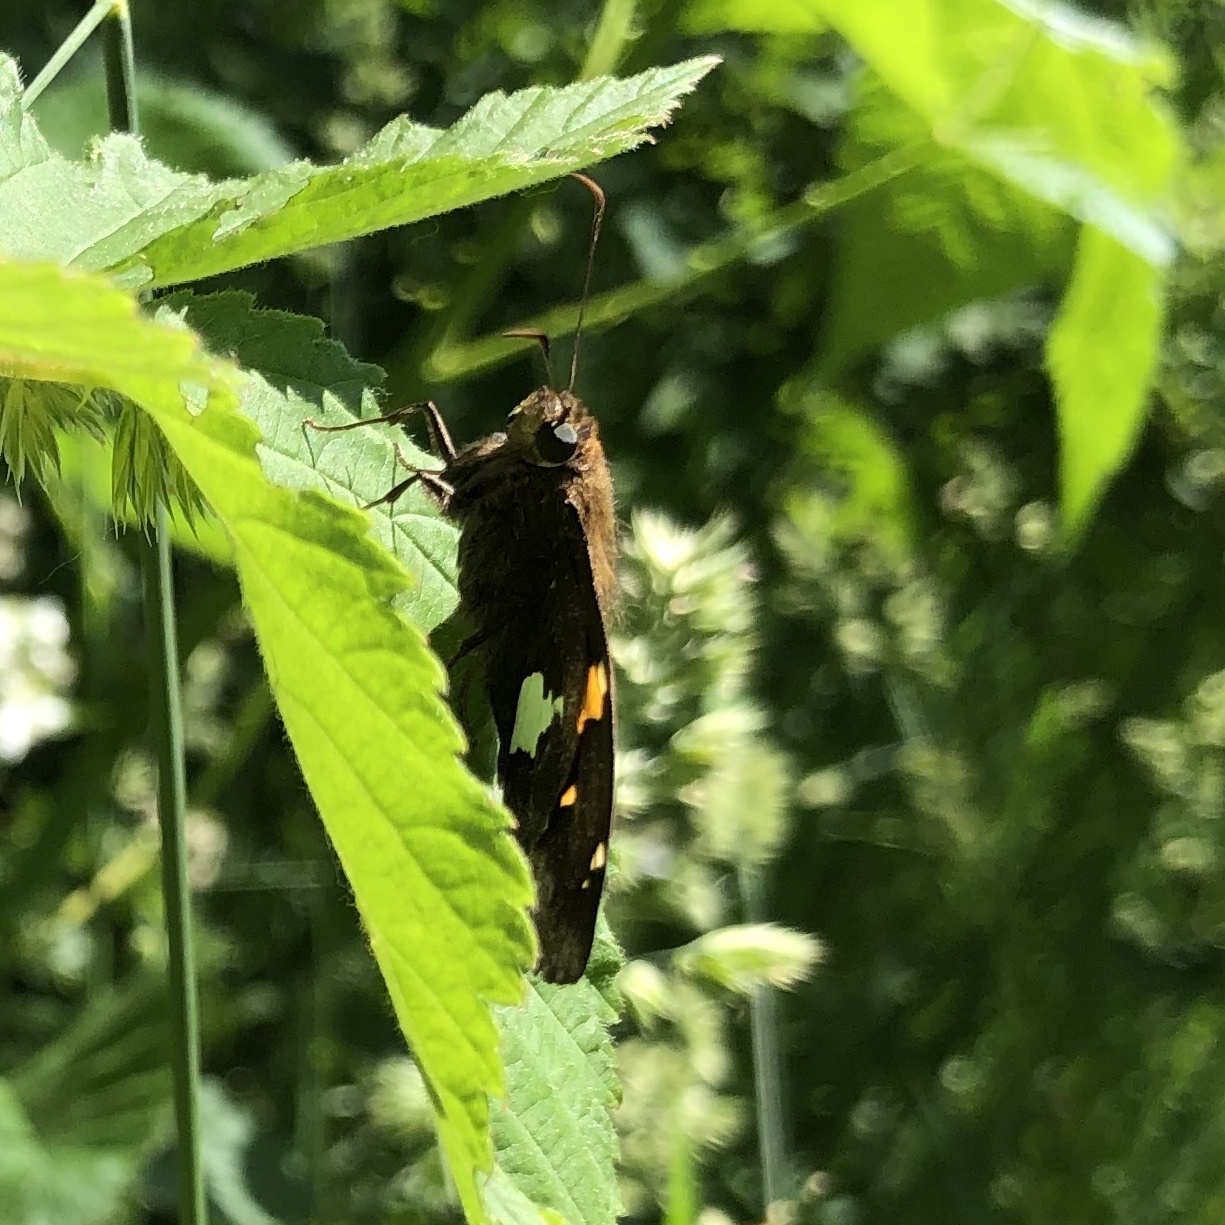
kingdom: Animalia
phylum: Arthropoda
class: Insecta
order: Lepidoptera
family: Hesperiidae
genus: Epargyreus
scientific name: Epargyreus clarus
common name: Silver-spotted skipper
